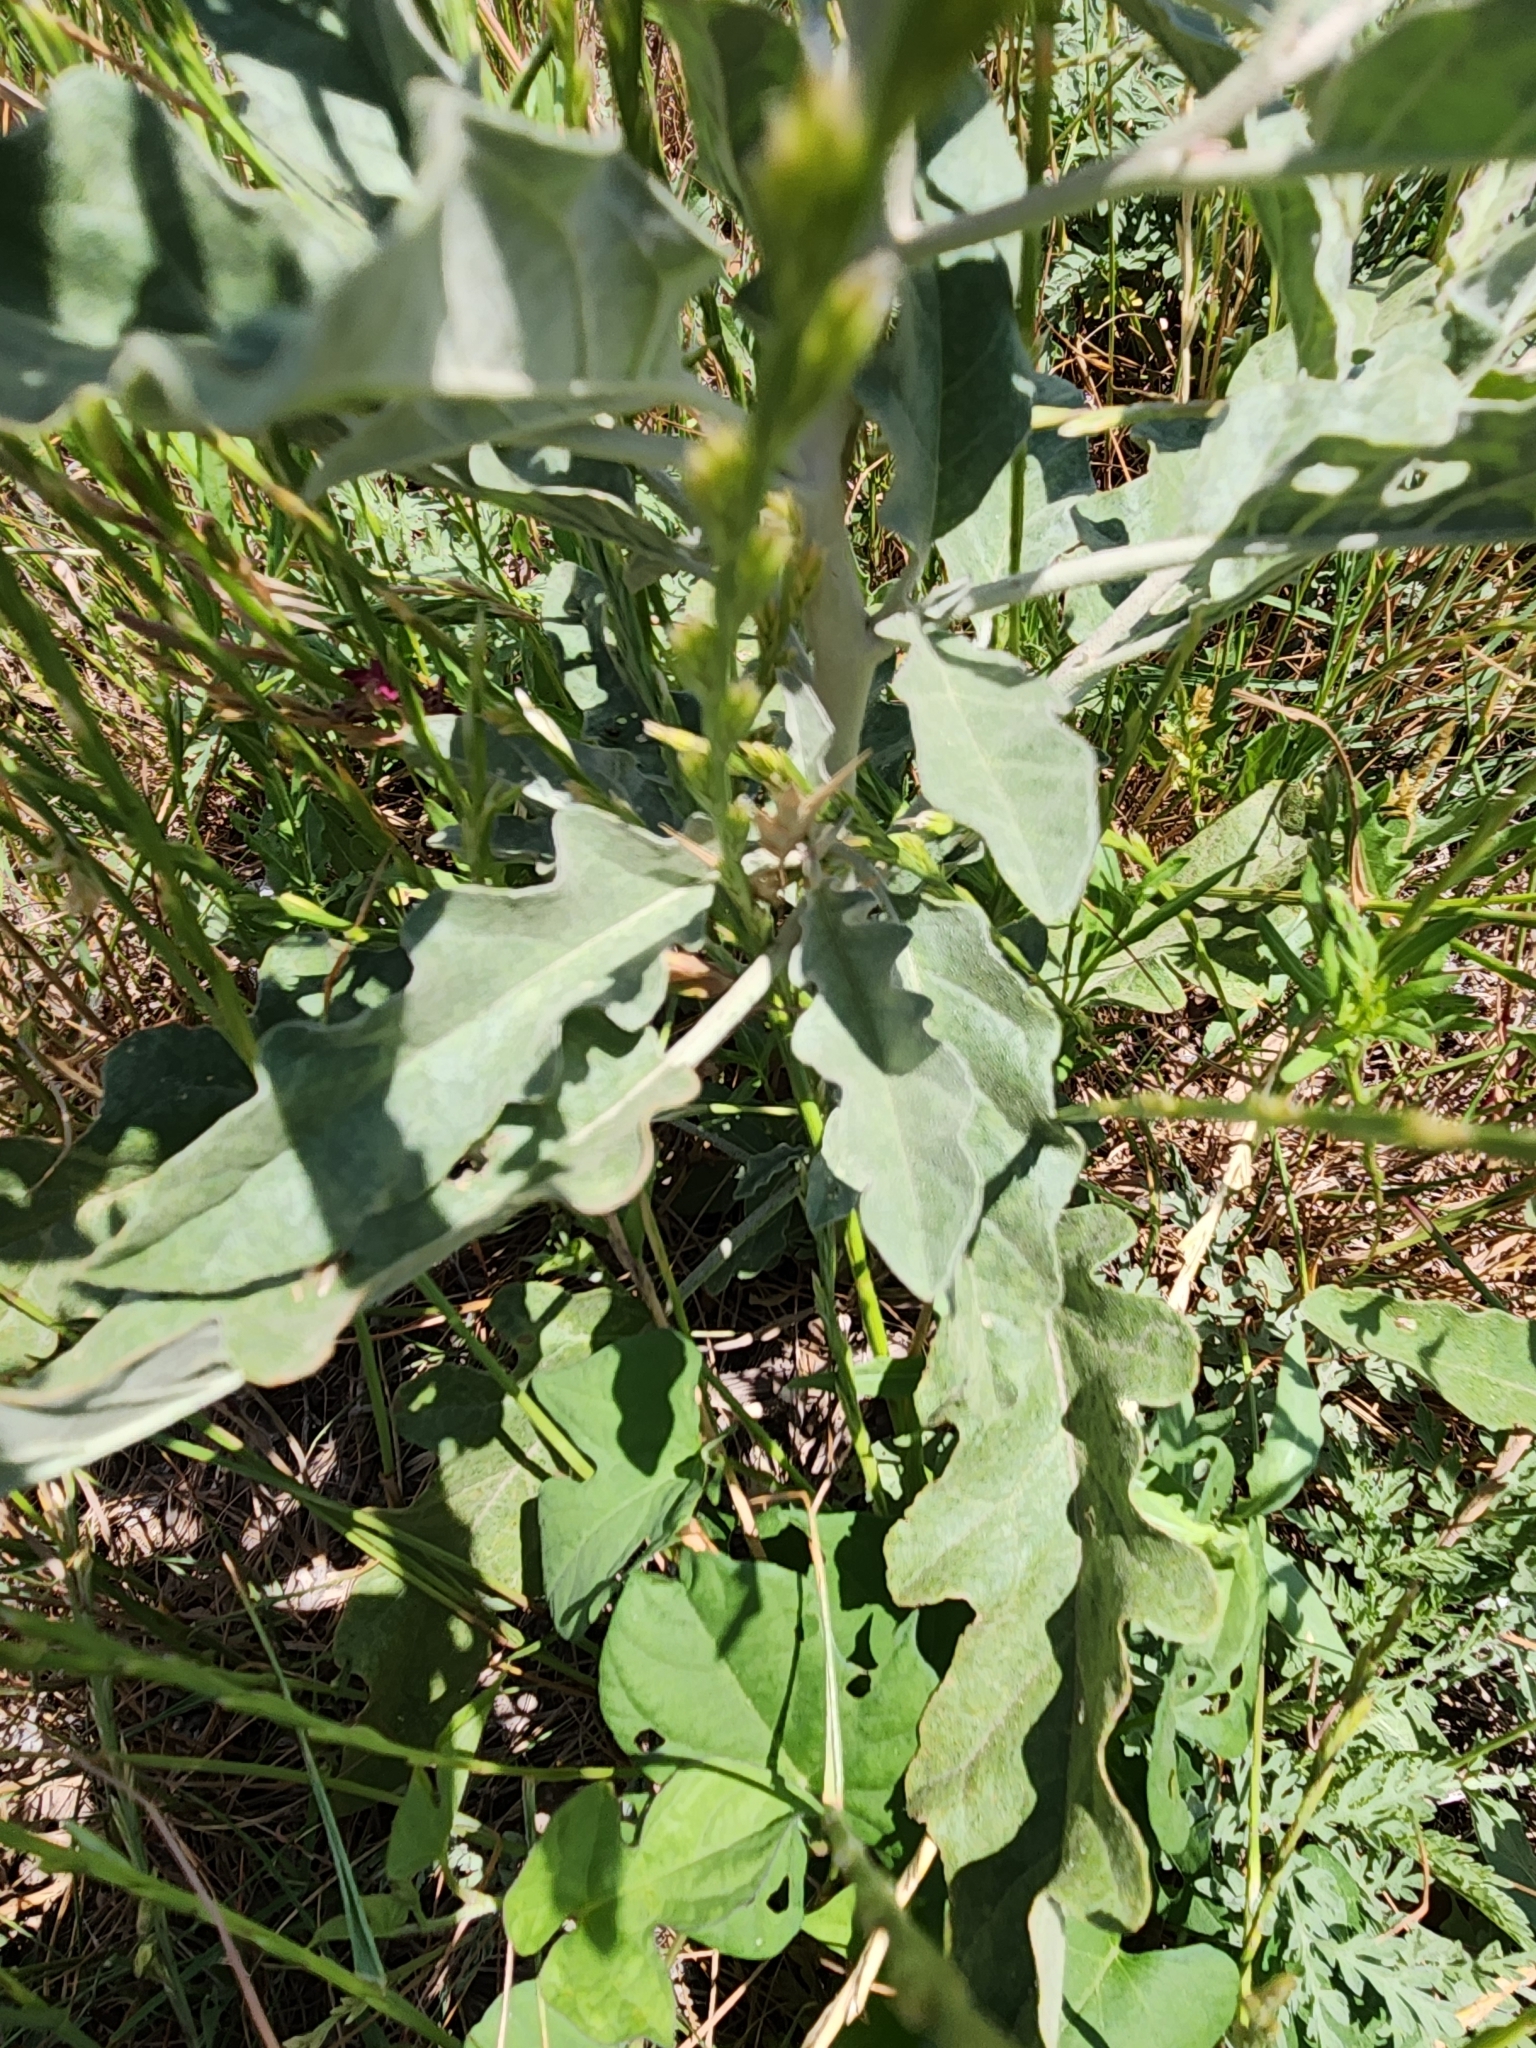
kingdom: Plantae
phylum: Tracheophyta
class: Magnoliopsida
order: Solanales
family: Solanaceae
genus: Solanum
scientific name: Solanum elaeagnifolium
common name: Silverleaf nightshade
